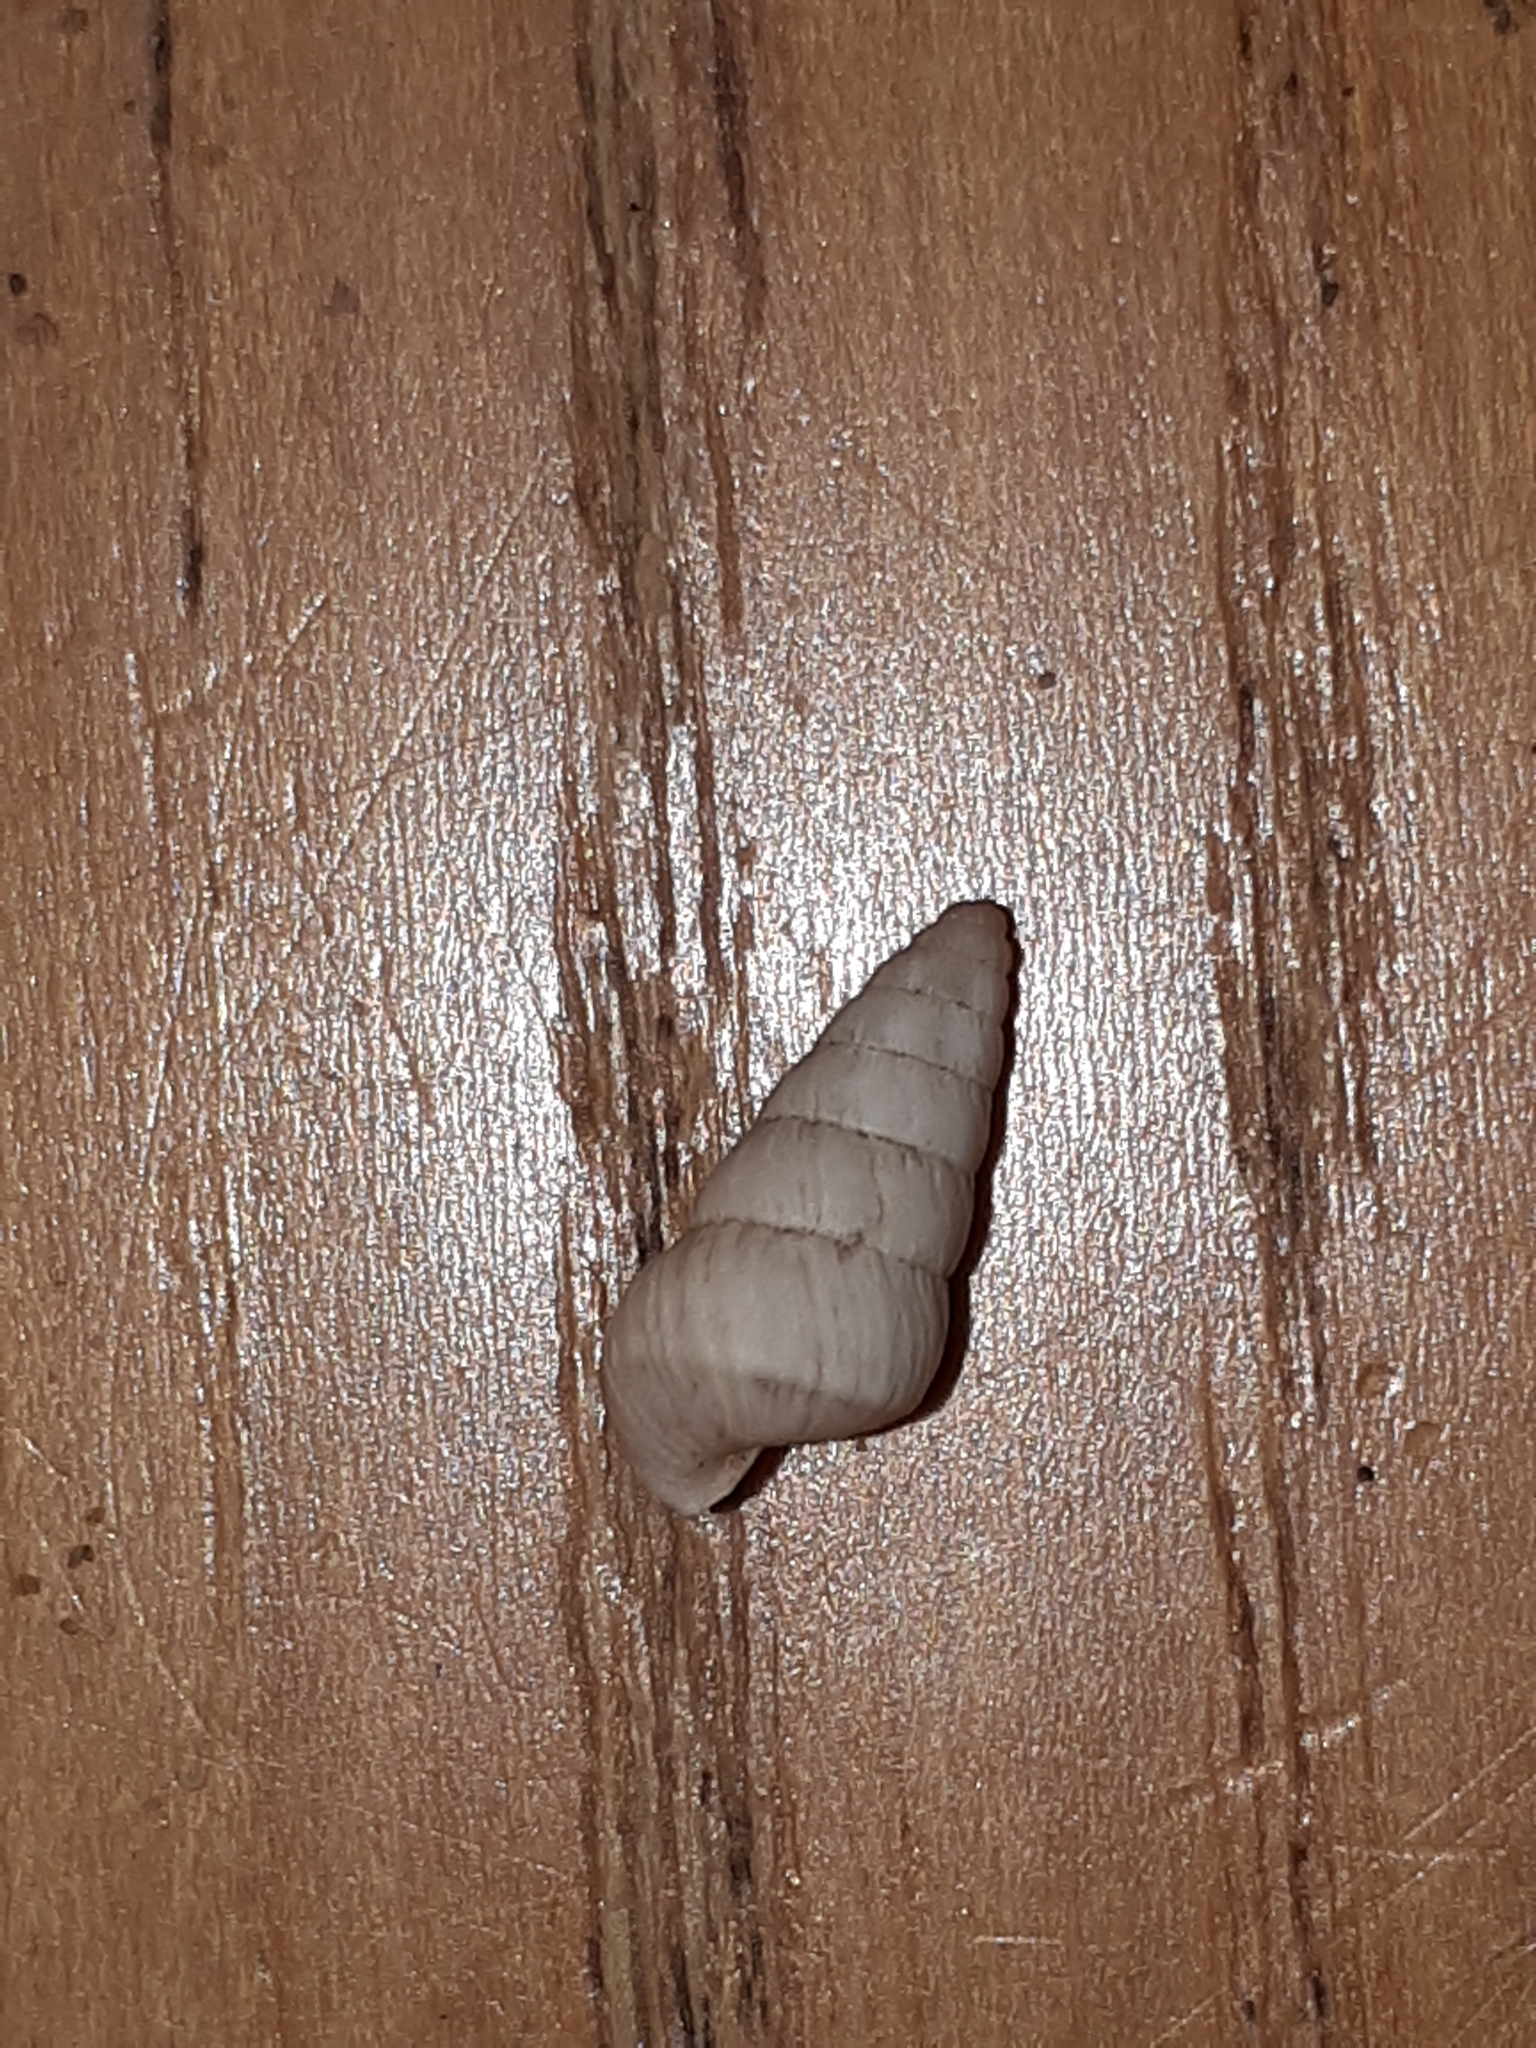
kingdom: Animalia
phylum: Mollusca
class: Gastropoda
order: Stylommatophora
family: Geomitridae
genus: Cochlicella
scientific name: Cochlicella acuta
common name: Pointed snail
